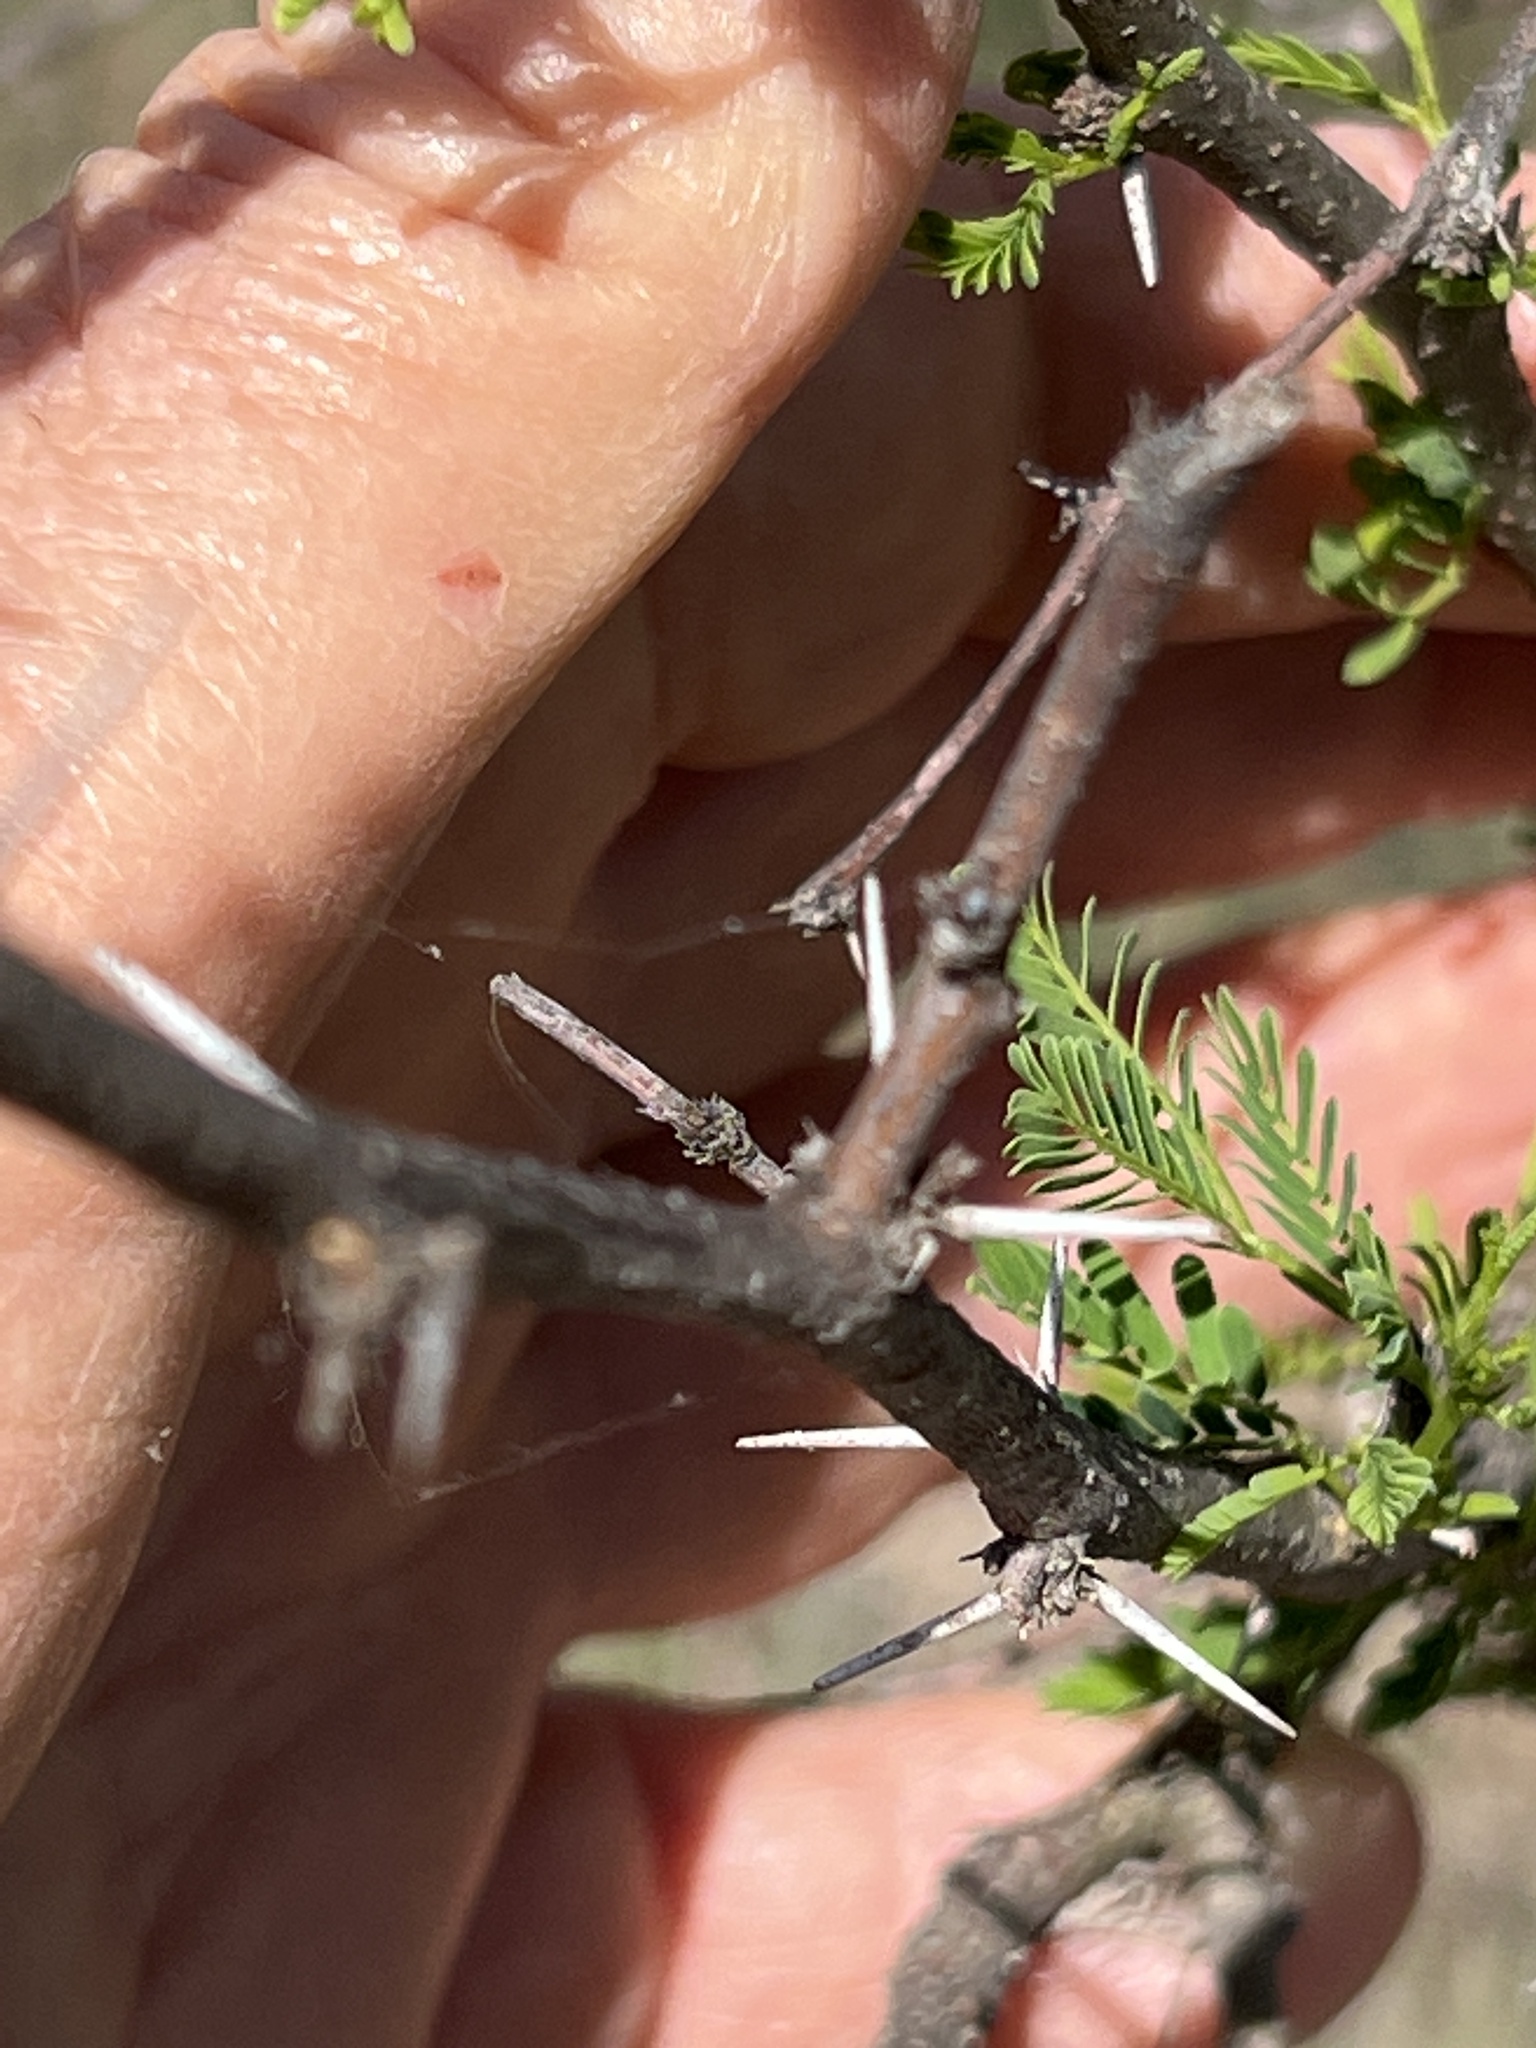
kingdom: Plantae
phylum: Tracheophyta
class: Magnoliopsida
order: Fabales
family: Fabaceae
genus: Vachellia
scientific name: Vachellia farnesiana
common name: Sweet acacia
